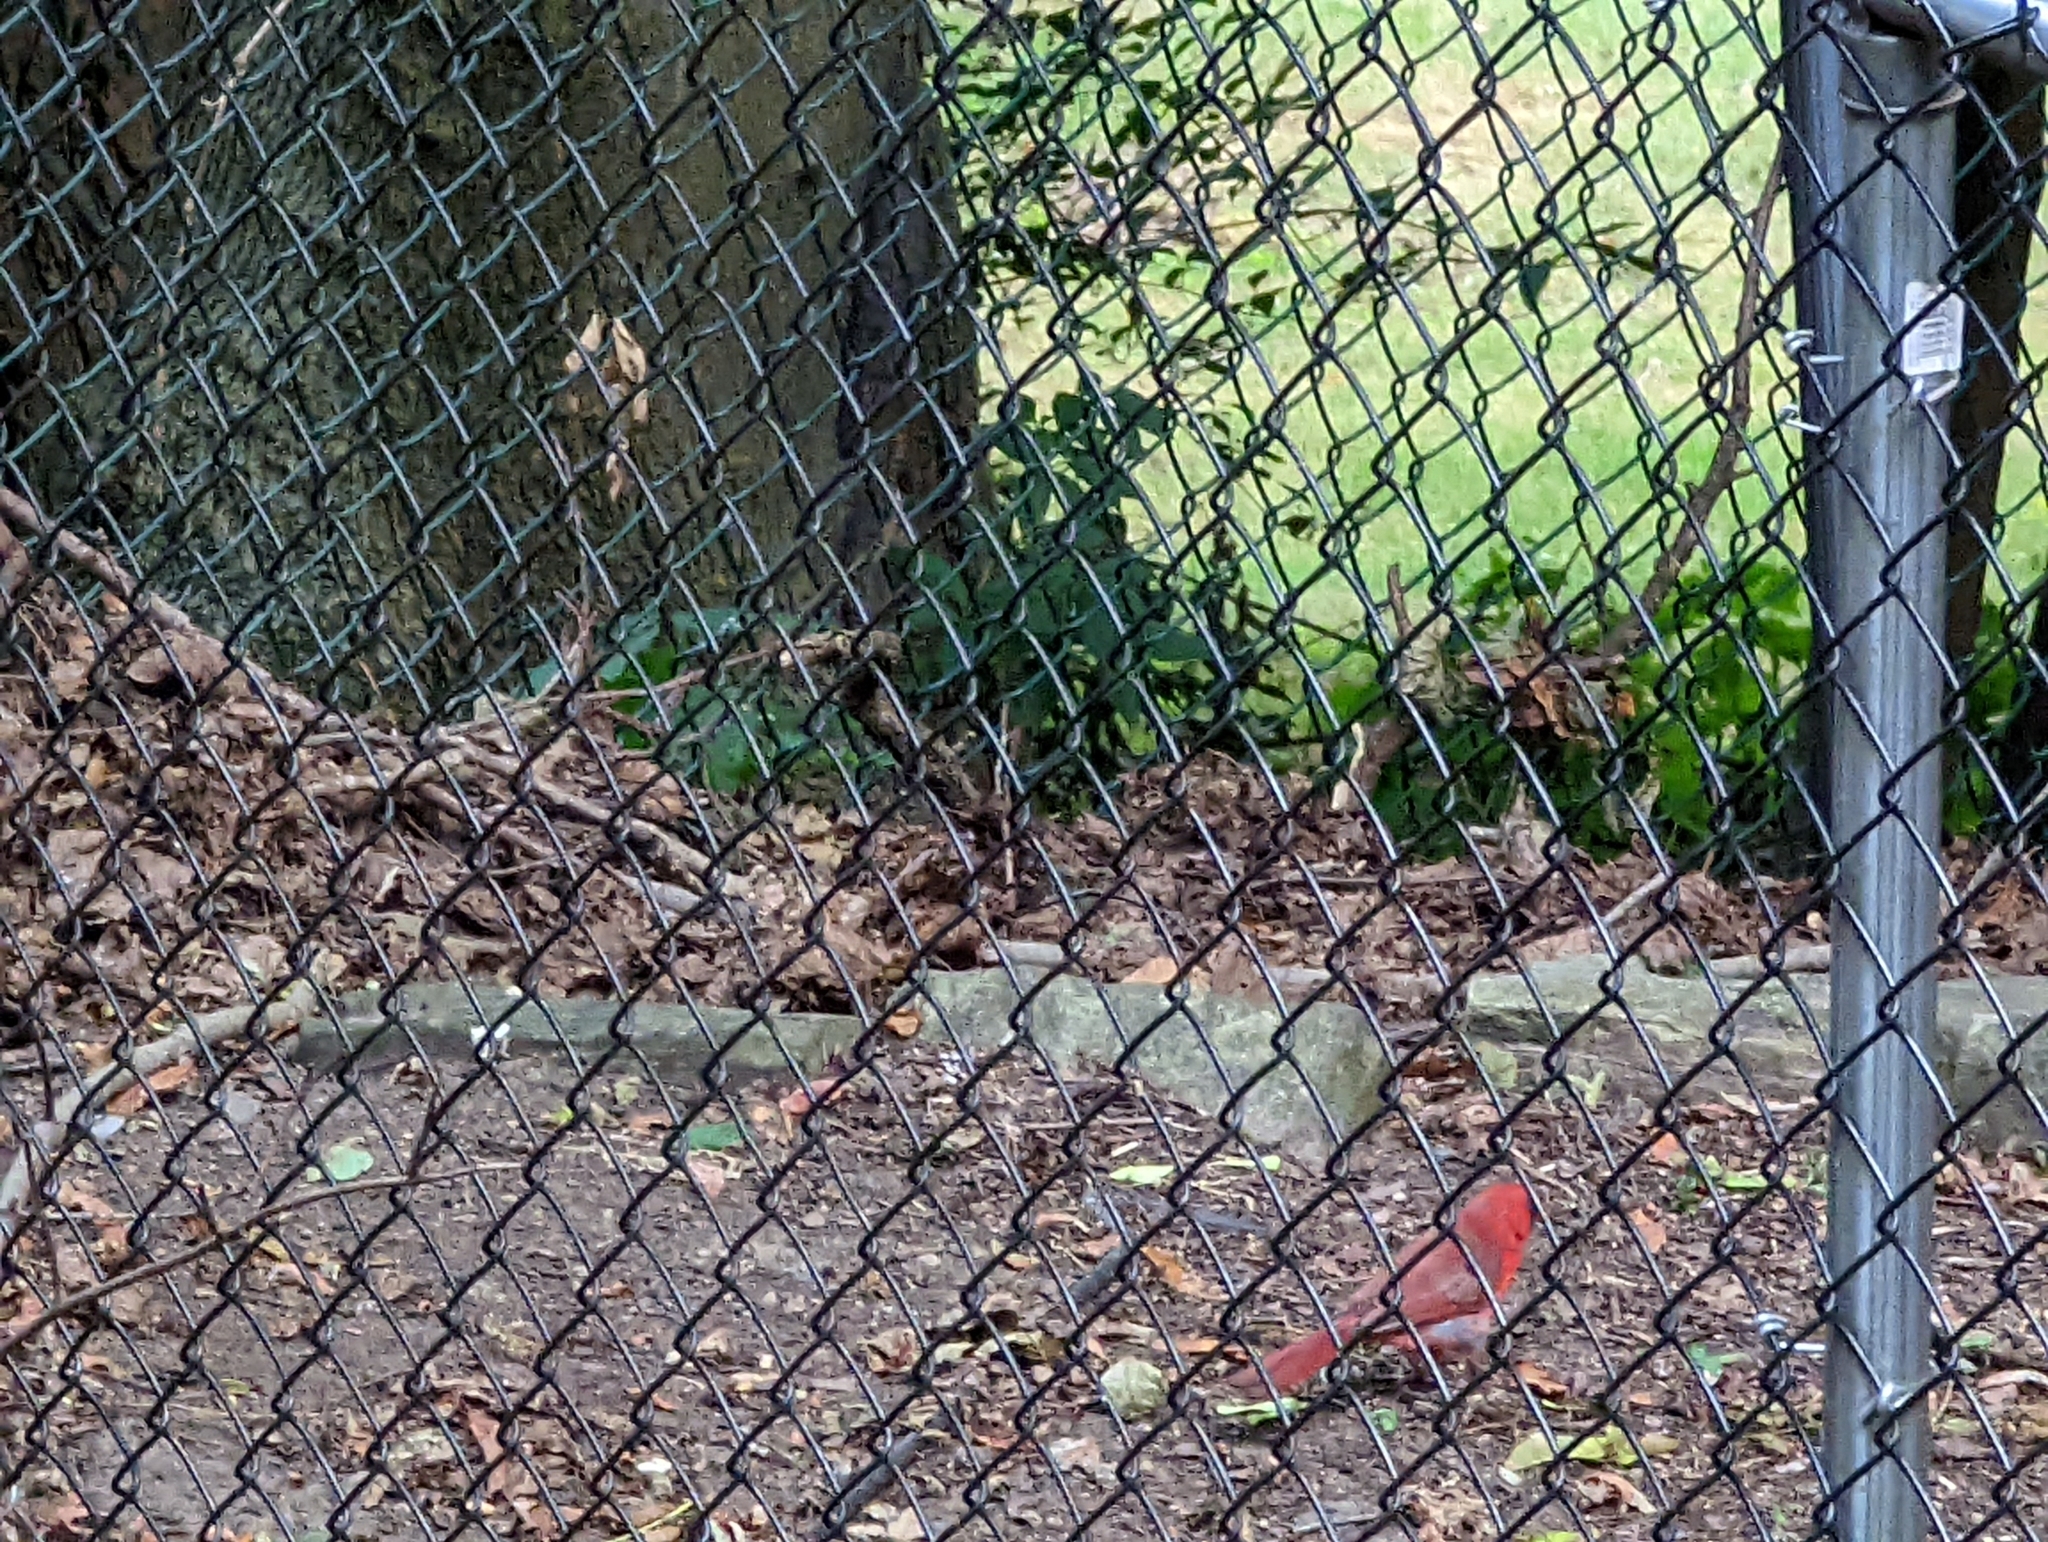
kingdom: Animalia
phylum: Chordata
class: Aves
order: Passeriformes
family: Cardinalidae
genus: Cardinalis
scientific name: Cardinalis cardinalis
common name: Northern cardinal
